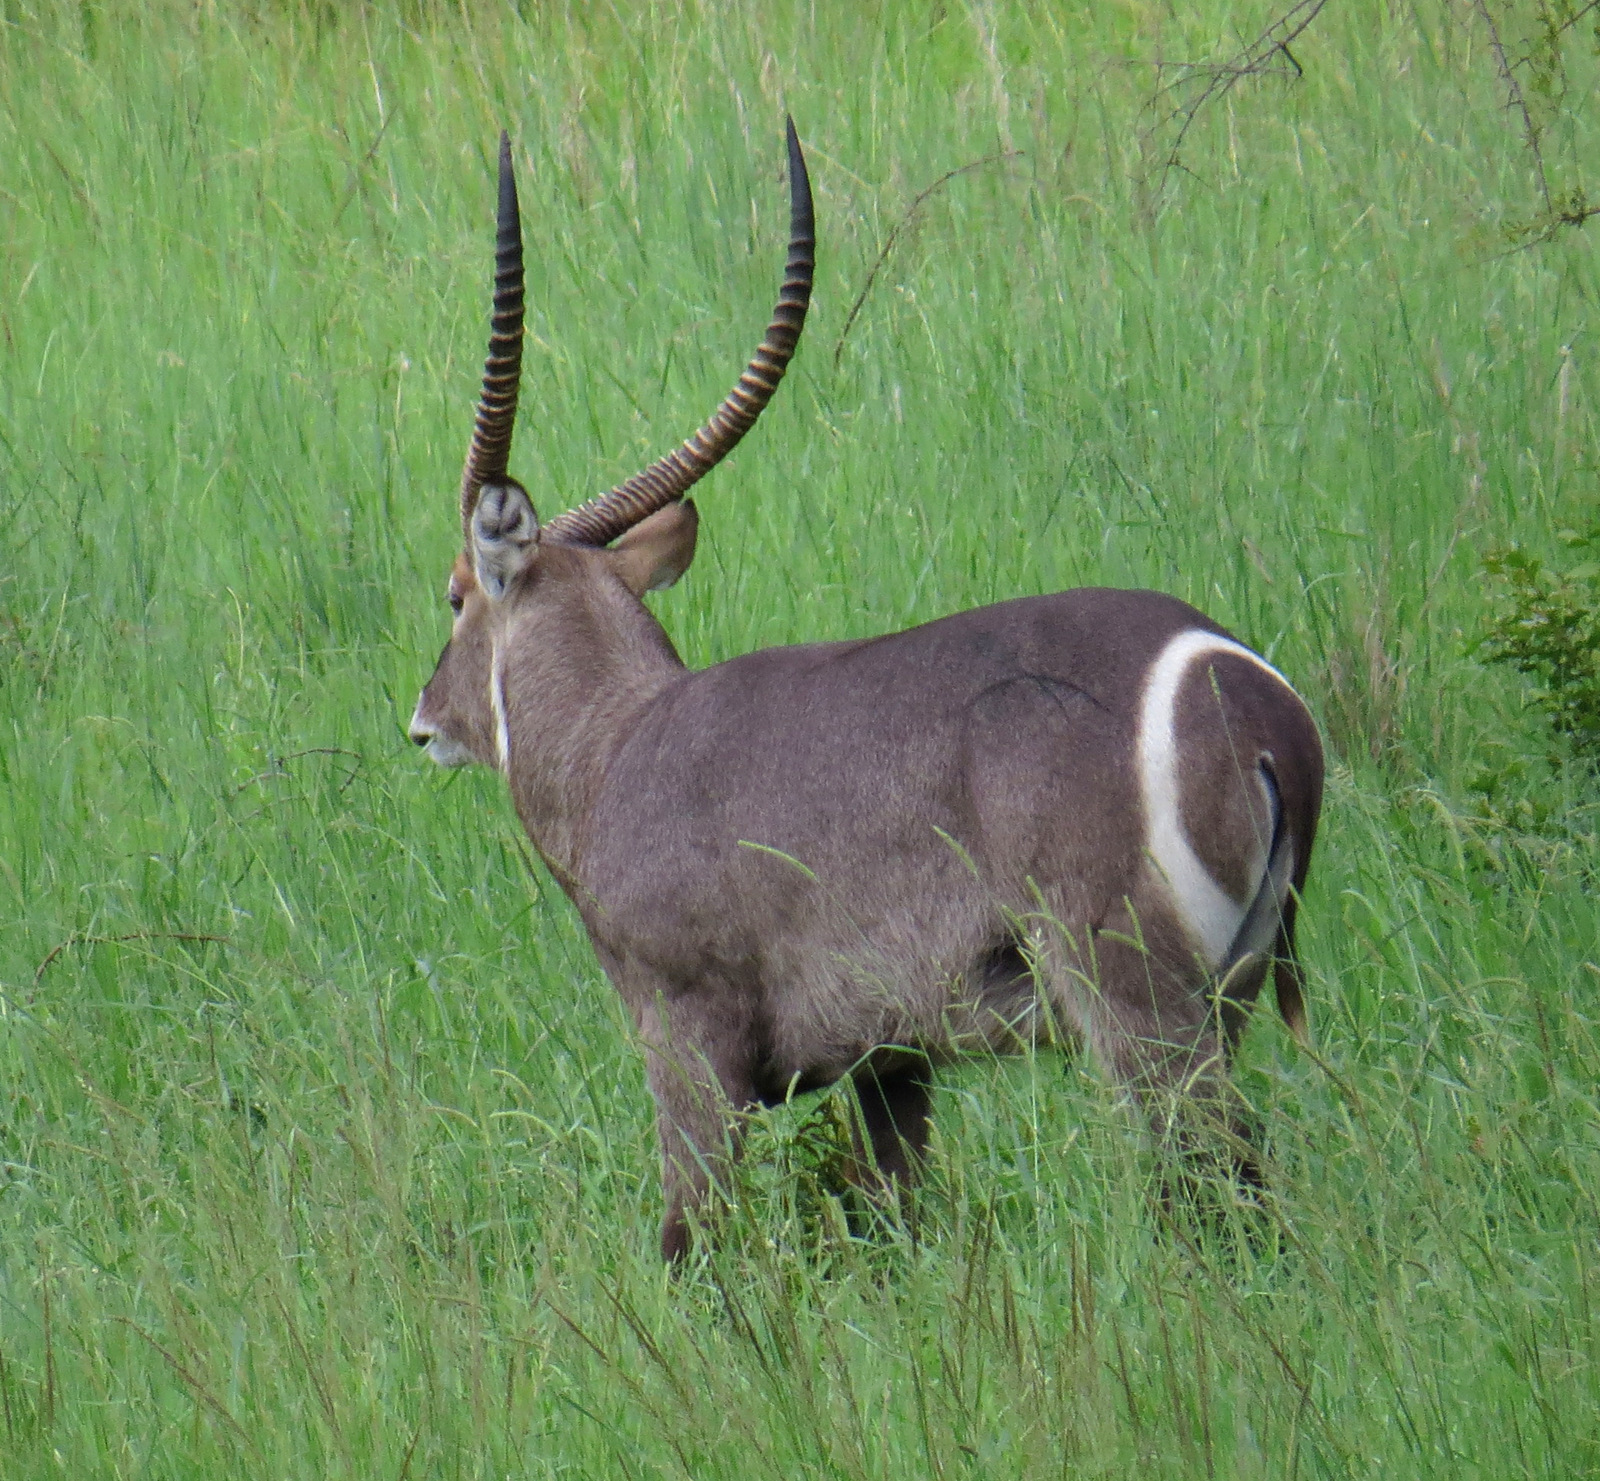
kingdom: Animalia
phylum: Chordata
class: Mammalia
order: Artiodactyla
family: Bovidae
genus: Kobus
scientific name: Kobus ellipsiprymnus
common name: Waterbuck
